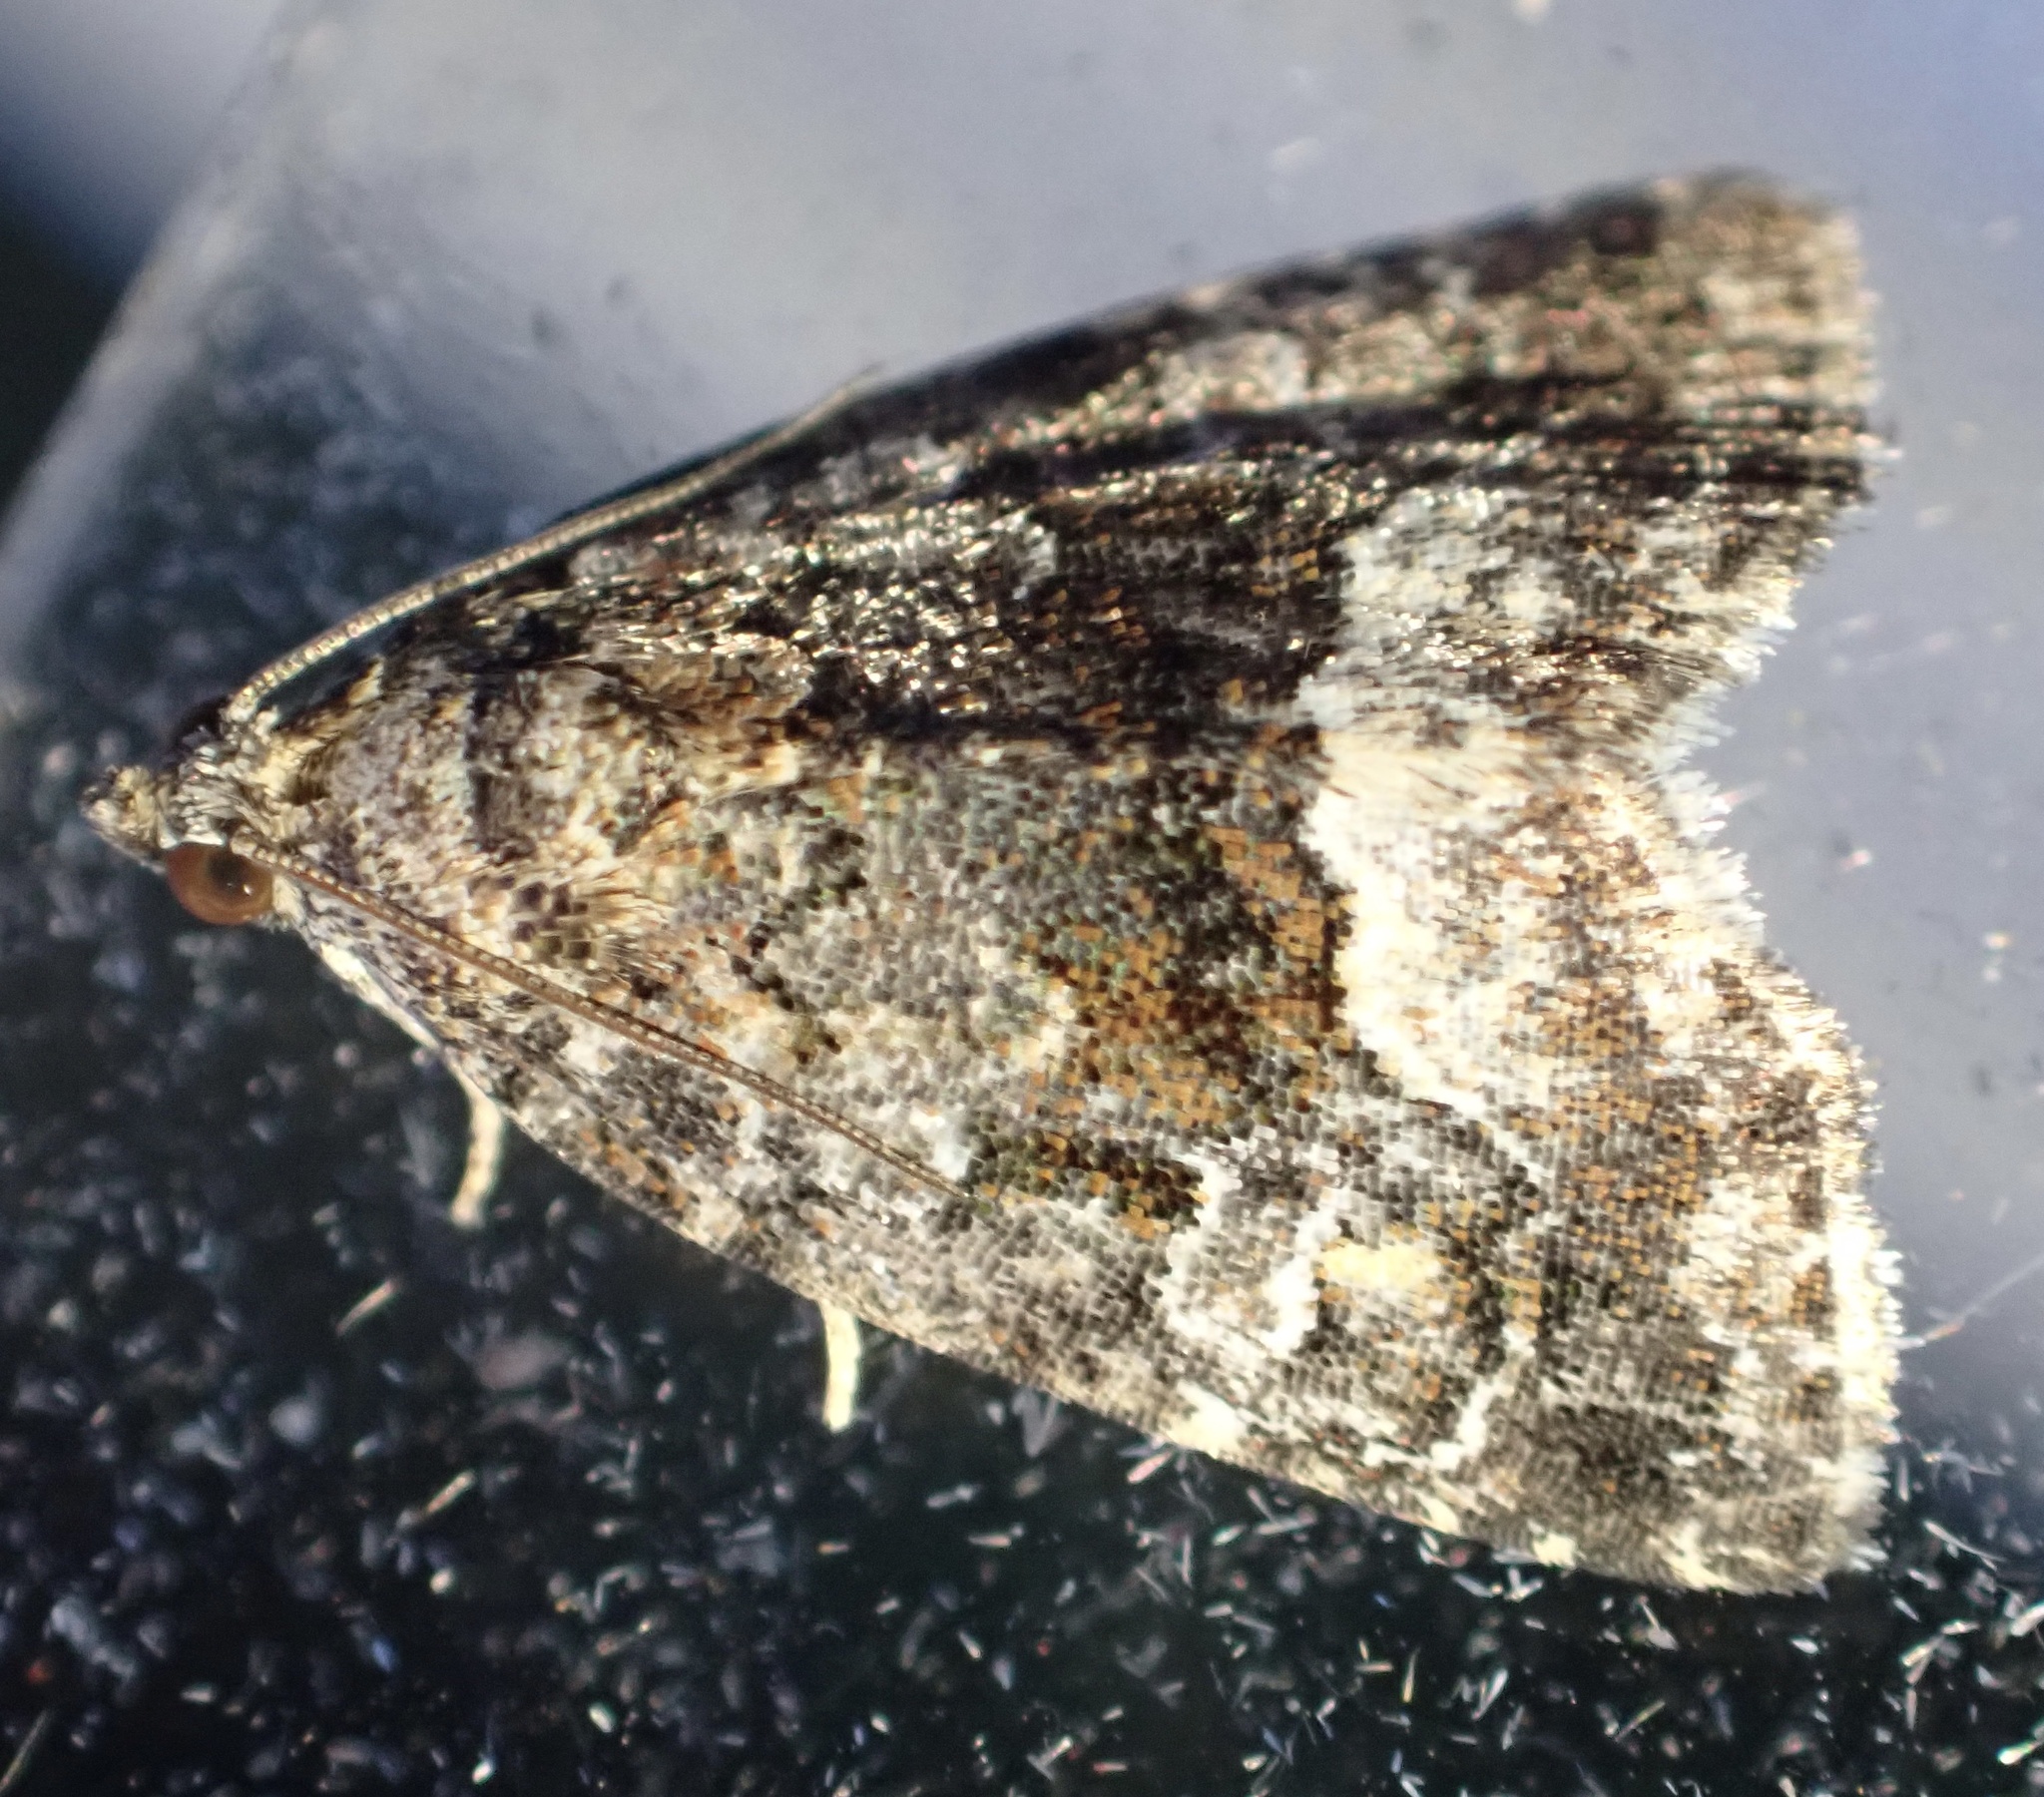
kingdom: Animalia
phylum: Arthropoda
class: Insecta
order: Lepidoptera
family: Noctuidae
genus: Deltote
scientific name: Deltote pygarga
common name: Marbled white spot
